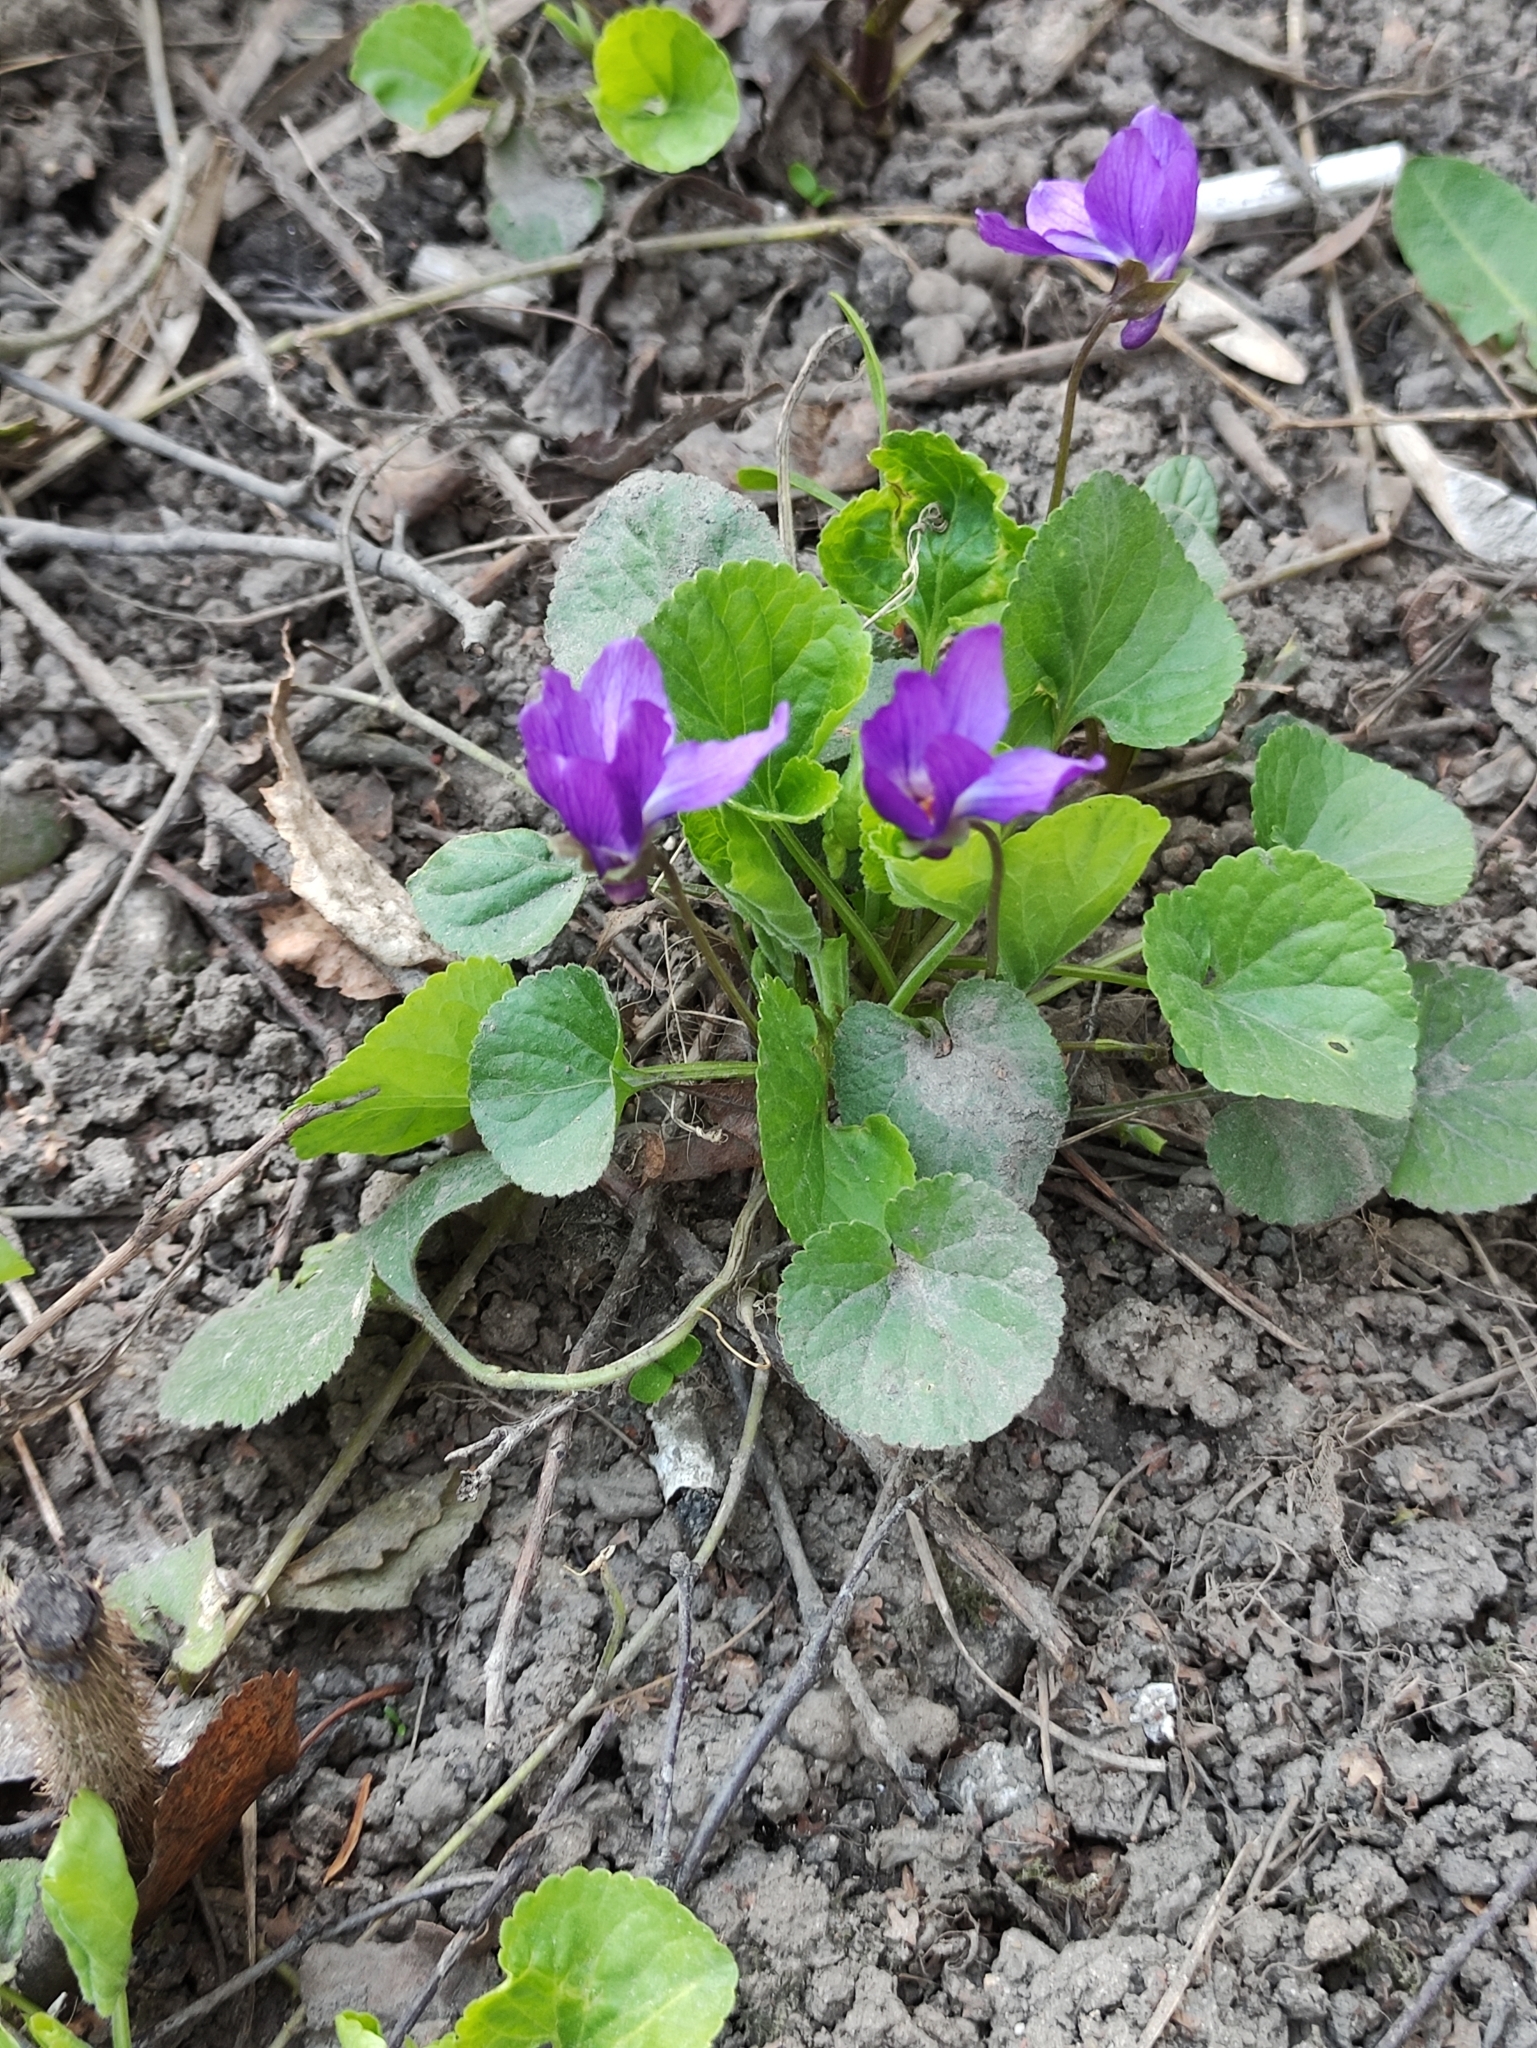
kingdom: Plantae
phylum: Tracheophyta
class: Magnoliopsida
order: Malpighiales
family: Violaceae
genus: Viola
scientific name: Viola odorata
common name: Sweet violet
